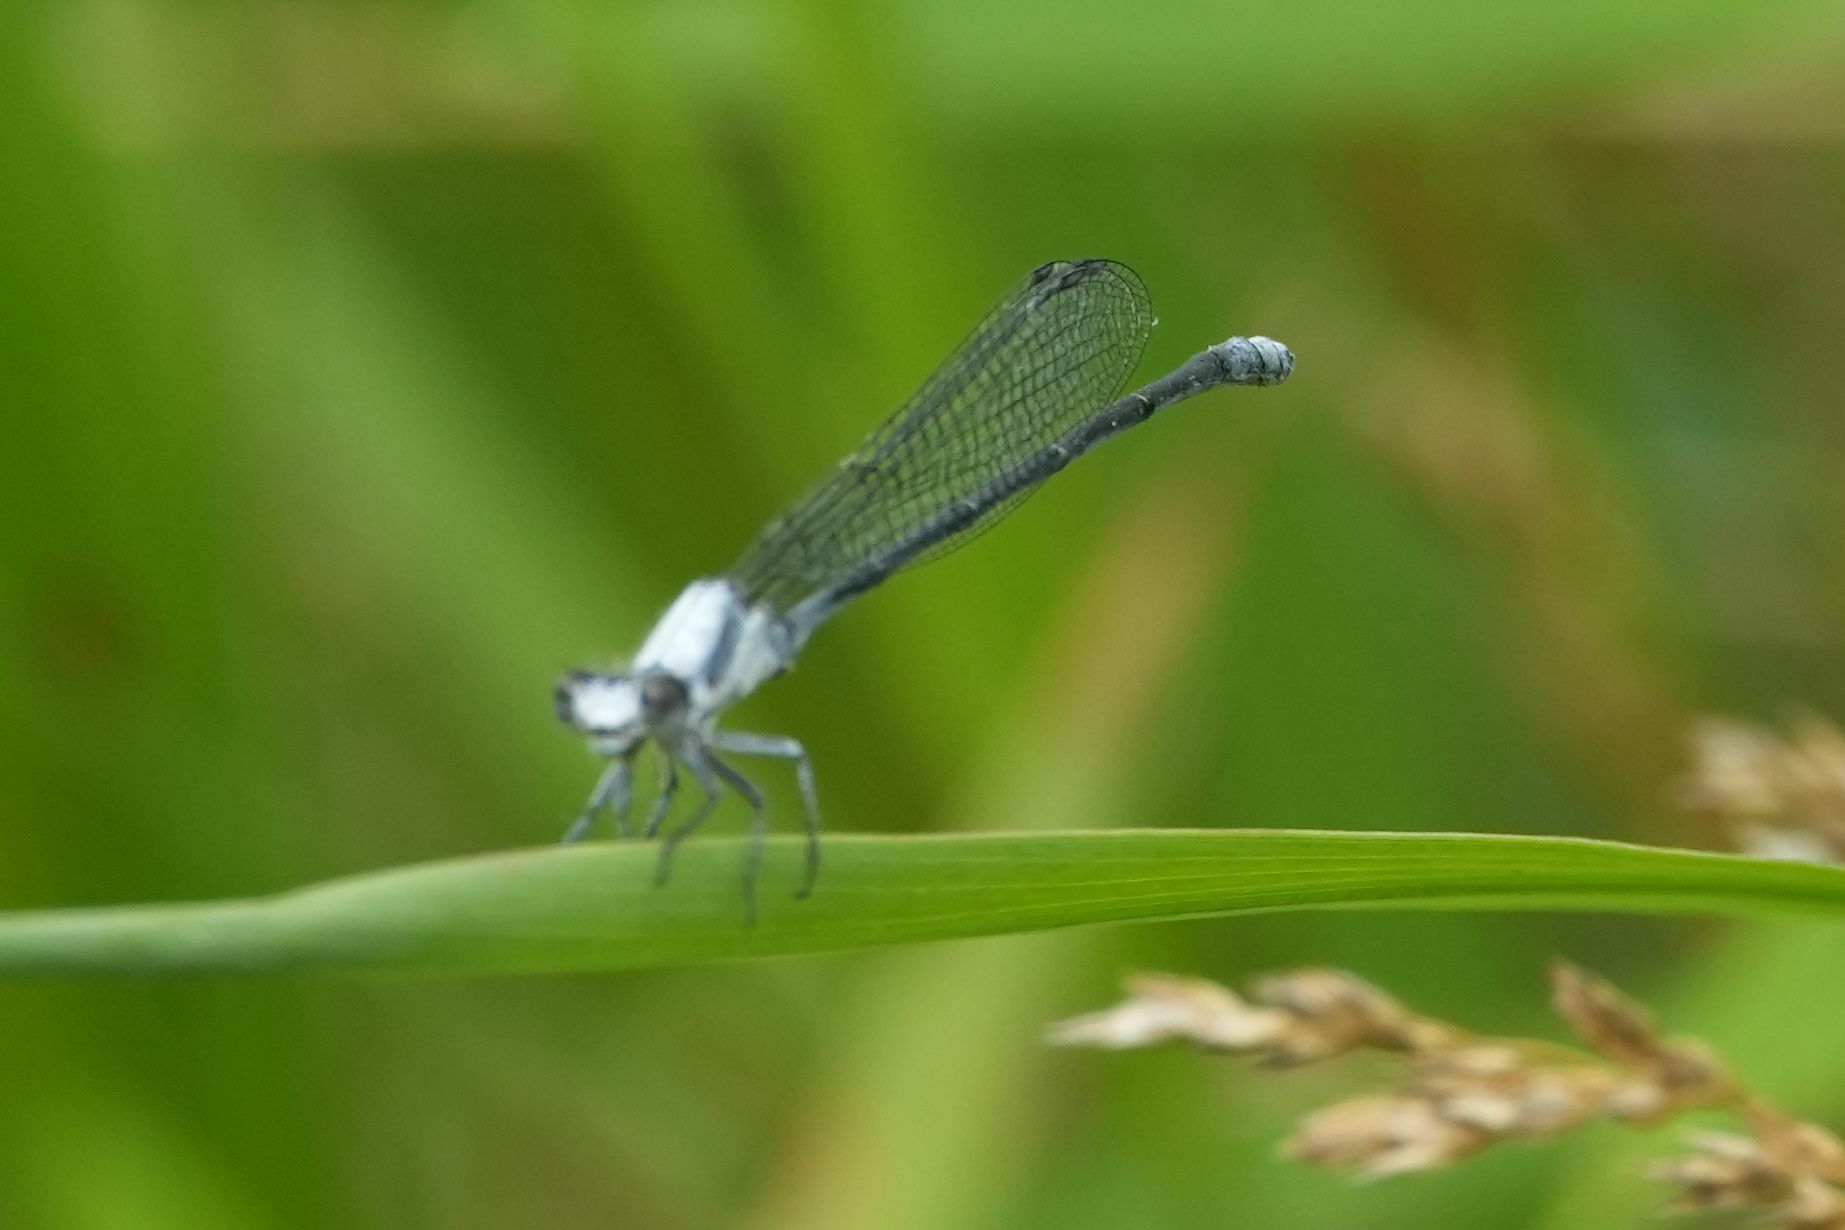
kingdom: Animalia
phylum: Arthropoda
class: Insecta
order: Odonata
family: Coenagrionidae
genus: Argia
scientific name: Argia moesta
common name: Powdered dancer
